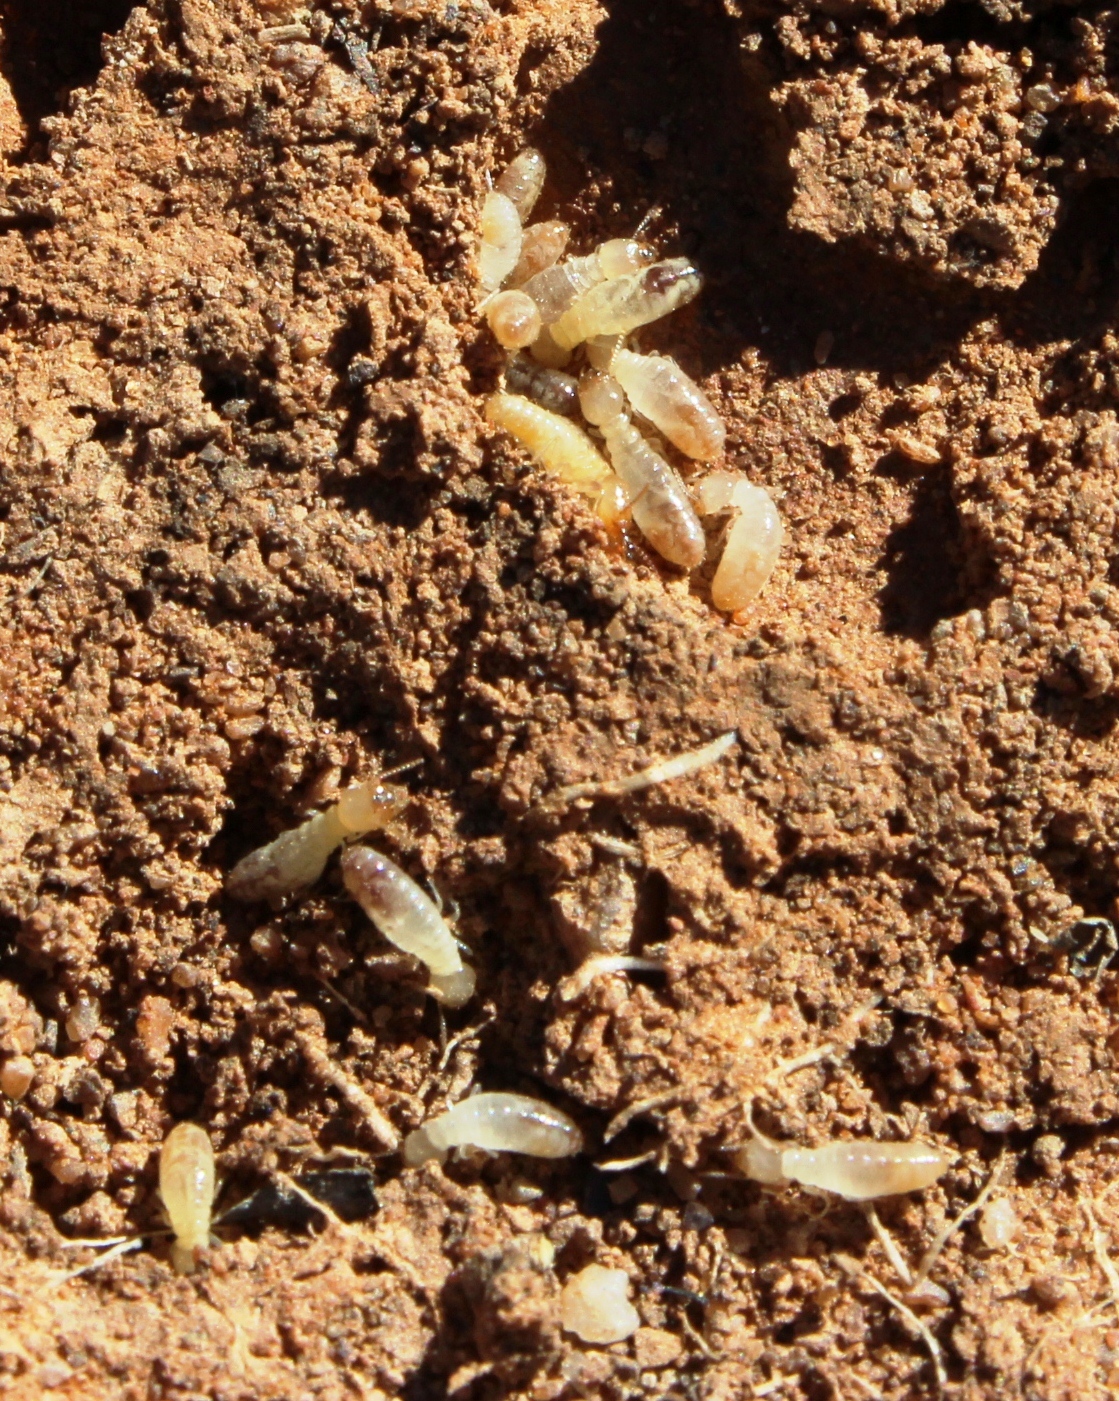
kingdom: Animalia
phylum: Arthropoda
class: Insecta
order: Blattodea
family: Rhinotermitidae
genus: Psammotermes
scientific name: Psammotermes allocerus
